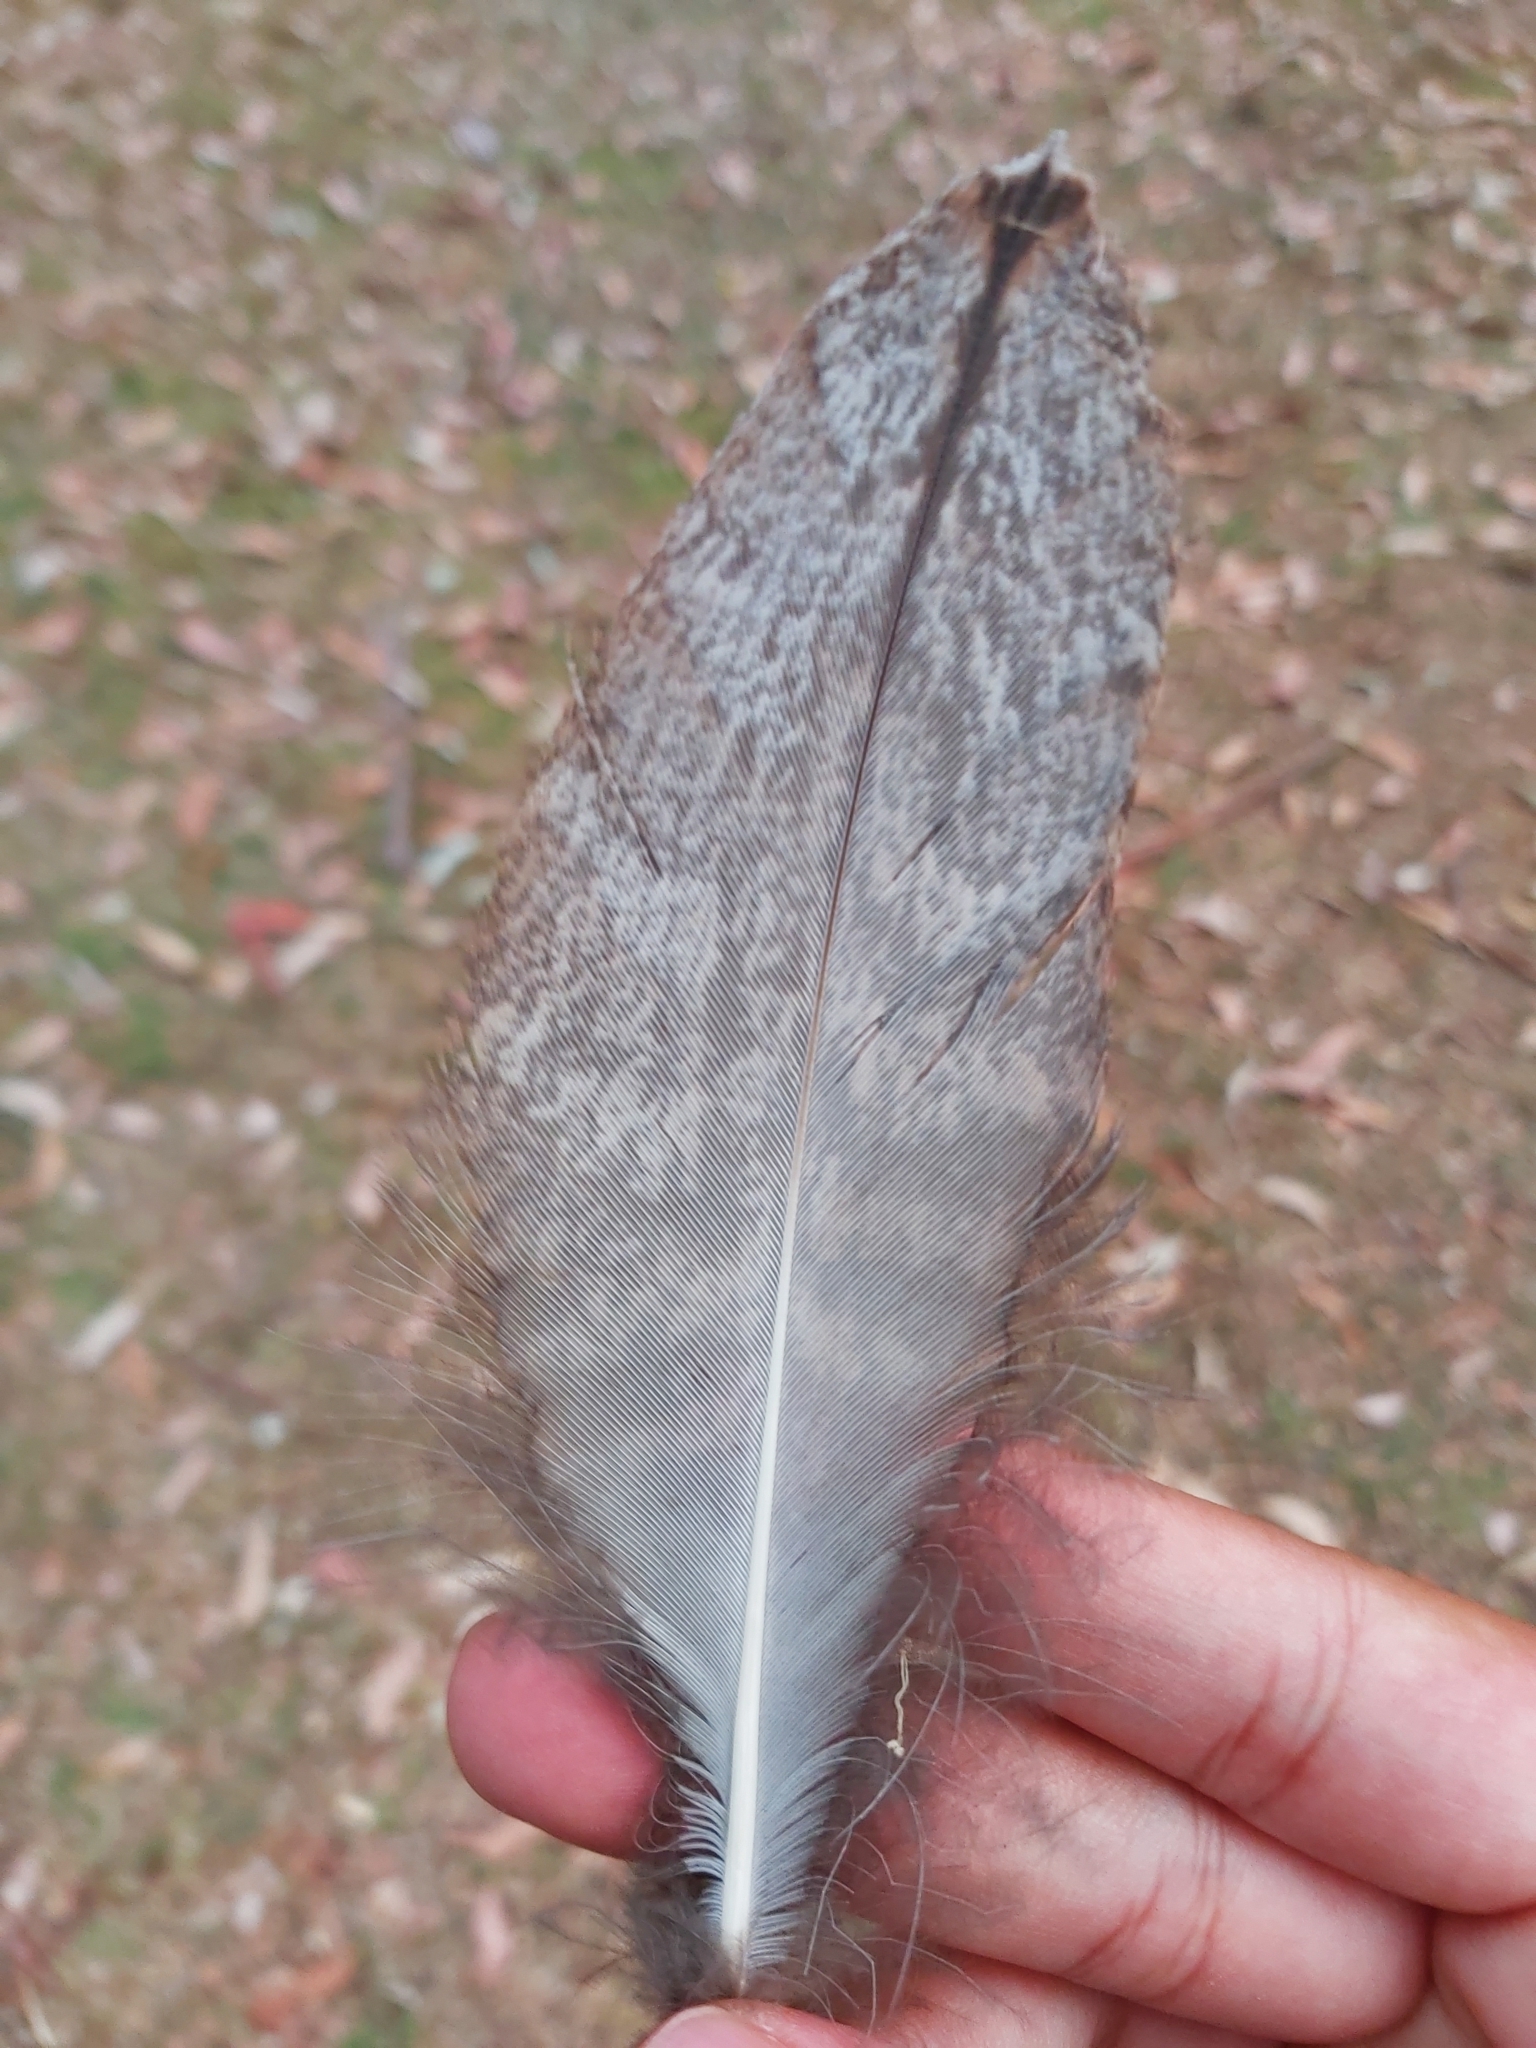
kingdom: Animalia
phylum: Chordata
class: Aves
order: Caprimulgiformes
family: Podargidae
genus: Podargus
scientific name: Podargus strigoides
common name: Tawny frogmouth
